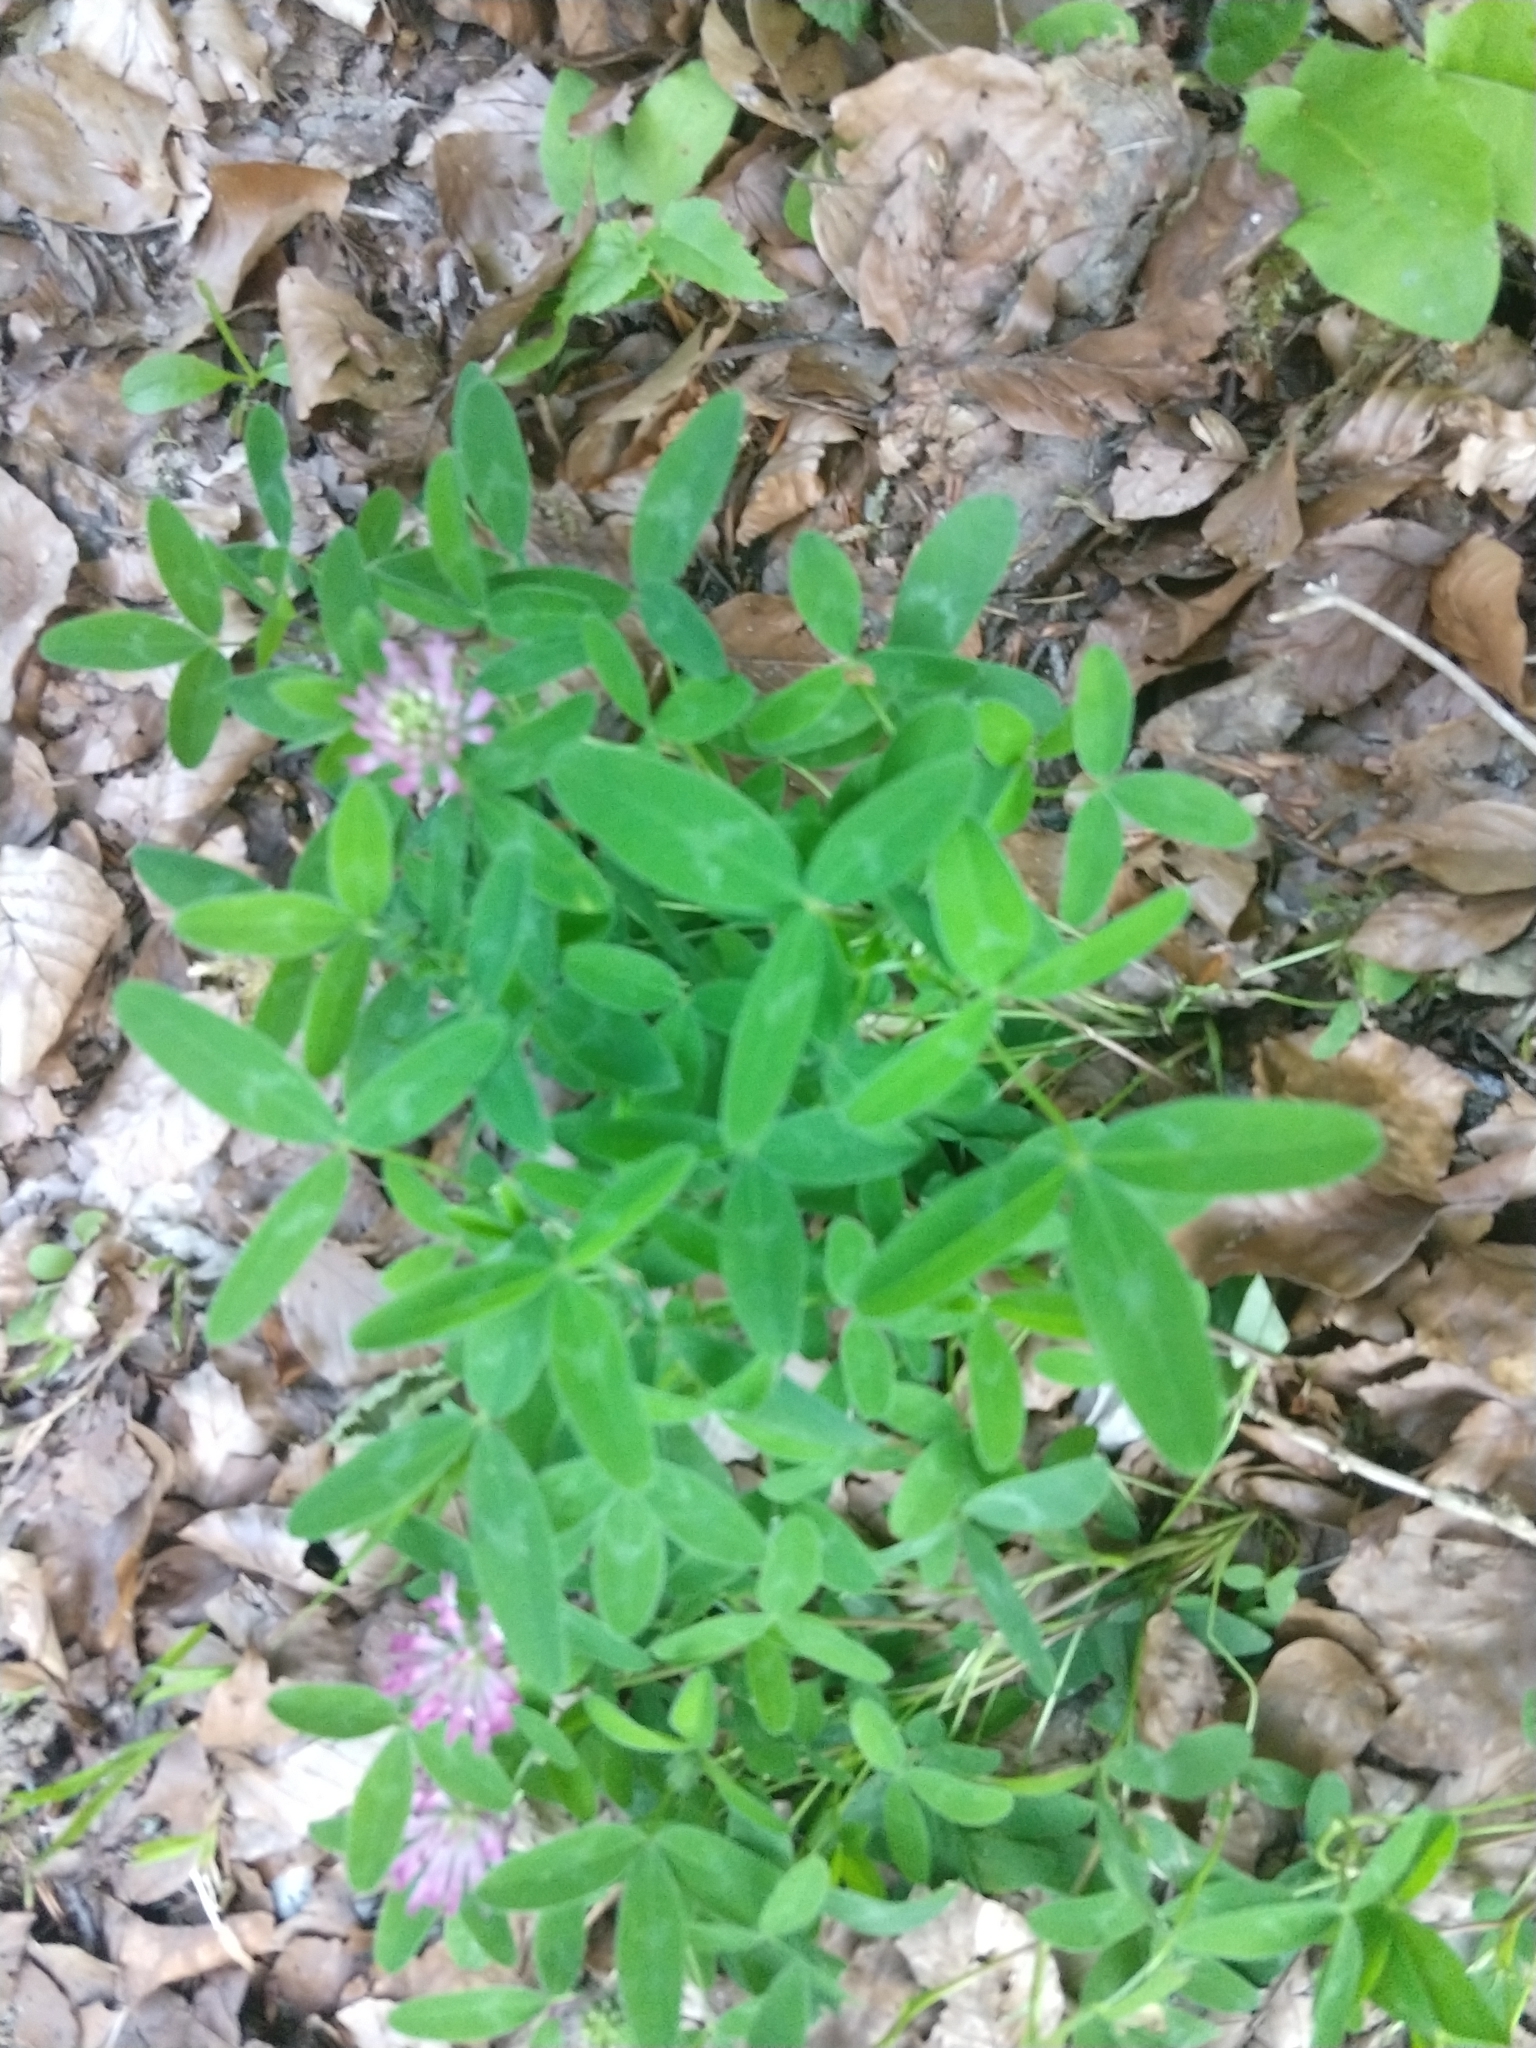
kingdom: Plantae
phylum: Tracheophyta
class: Magnoliopsida
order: Fabales
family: Fabaceae
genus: Trifolium
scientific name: Trifolium medium
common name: Zigzag clover
